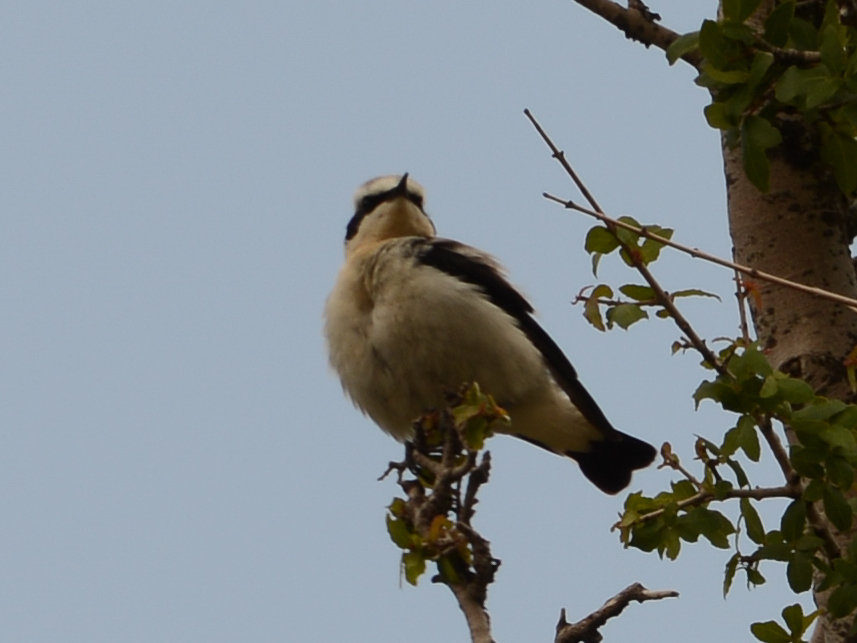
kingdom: Animalia
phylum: Chordata
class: Aves
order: Passeriformes
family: Muscicapidae
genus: Oenanthe
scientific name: Oenanthe oenanthe
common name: Northern wheatear
